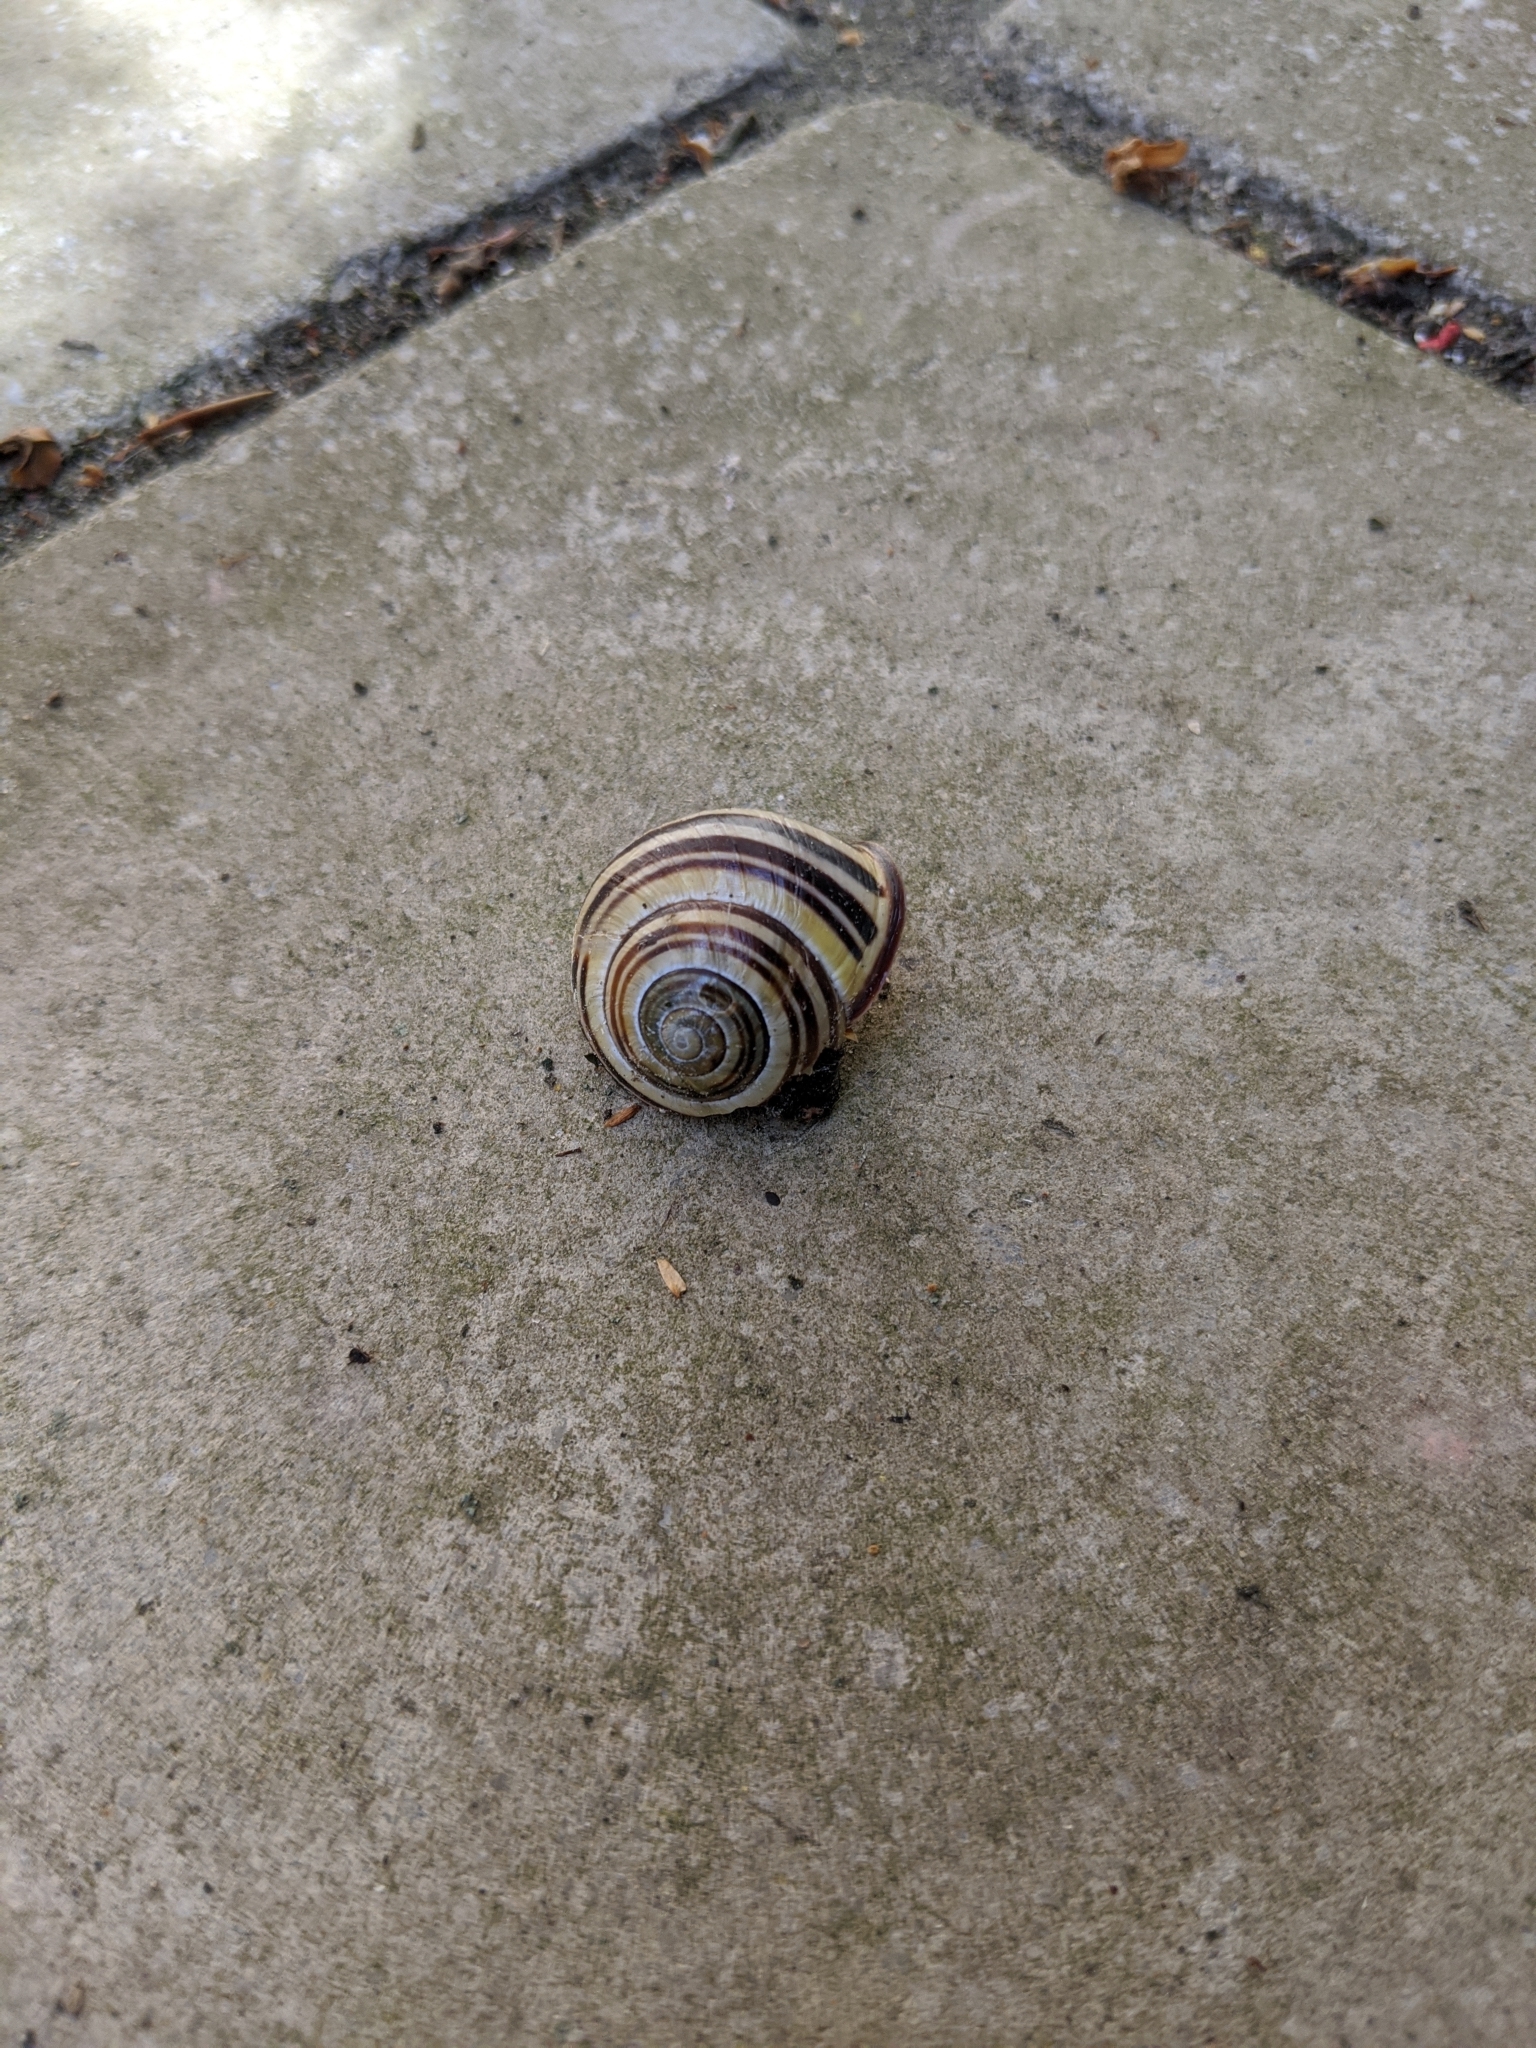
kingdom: Animalia
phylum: Mollusca
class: Gastropoda
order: Stylommatophora
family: Helicidae
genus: Cepaea
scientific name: Cepaea nemoralis
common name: Grovesnail
